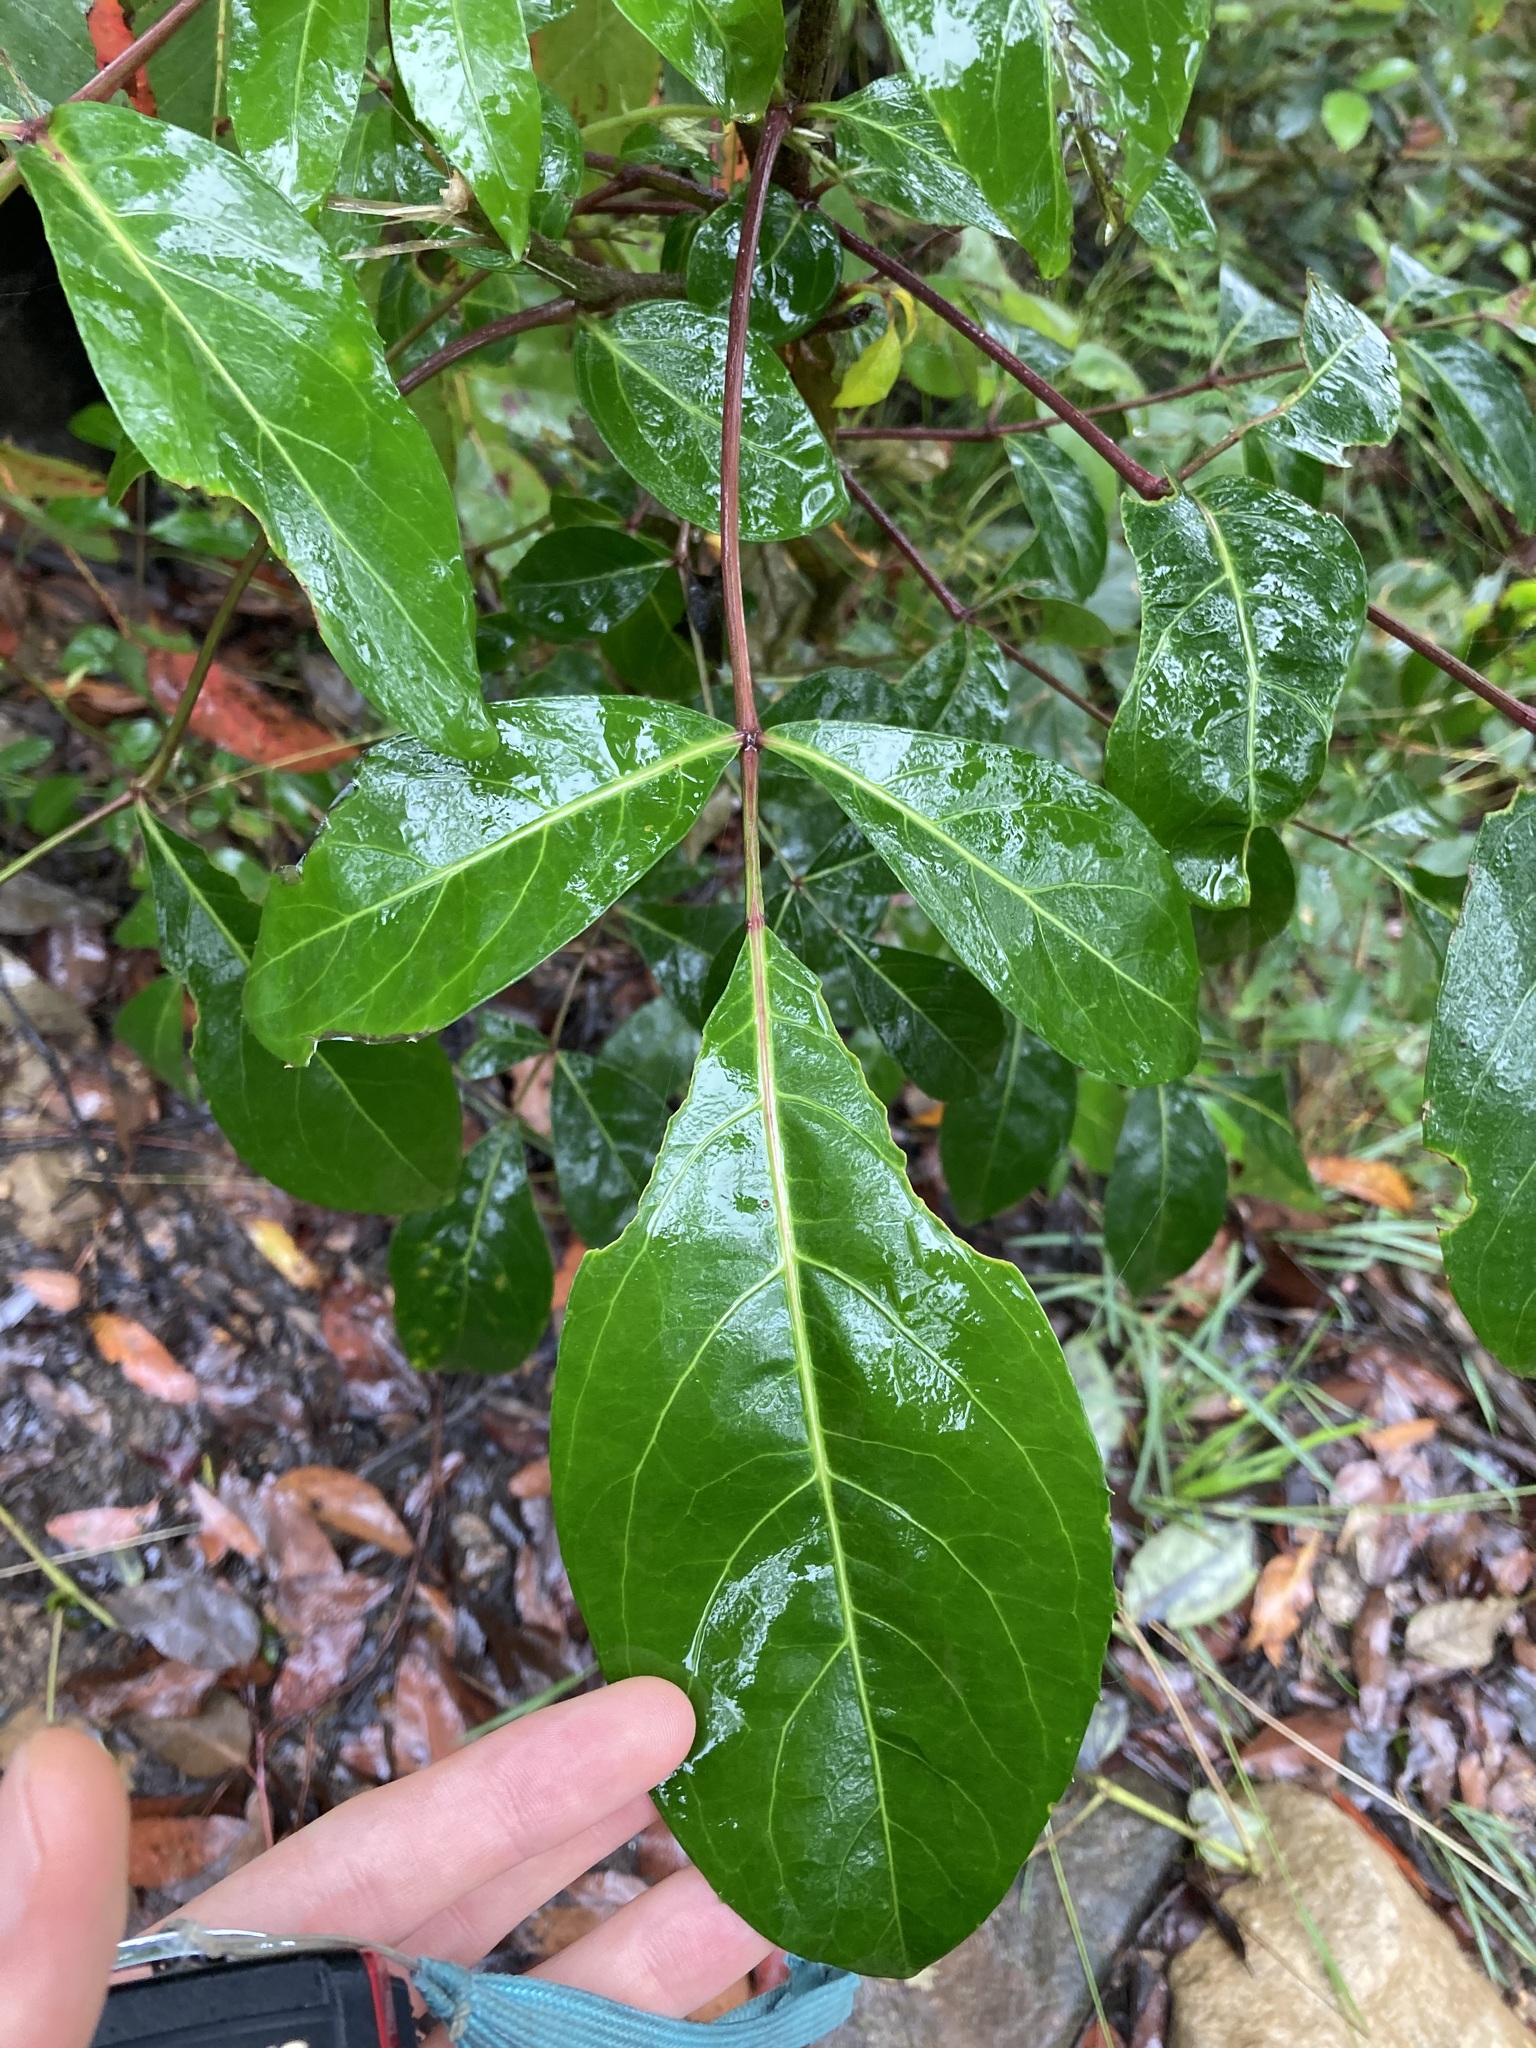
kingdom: Plantae
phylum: Tracheophyta
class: Magnoliopsida
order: Apiales
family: Araliaceae
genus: Polyscias
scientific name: Polyscias sambucifolia
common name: Elderberry-ash
